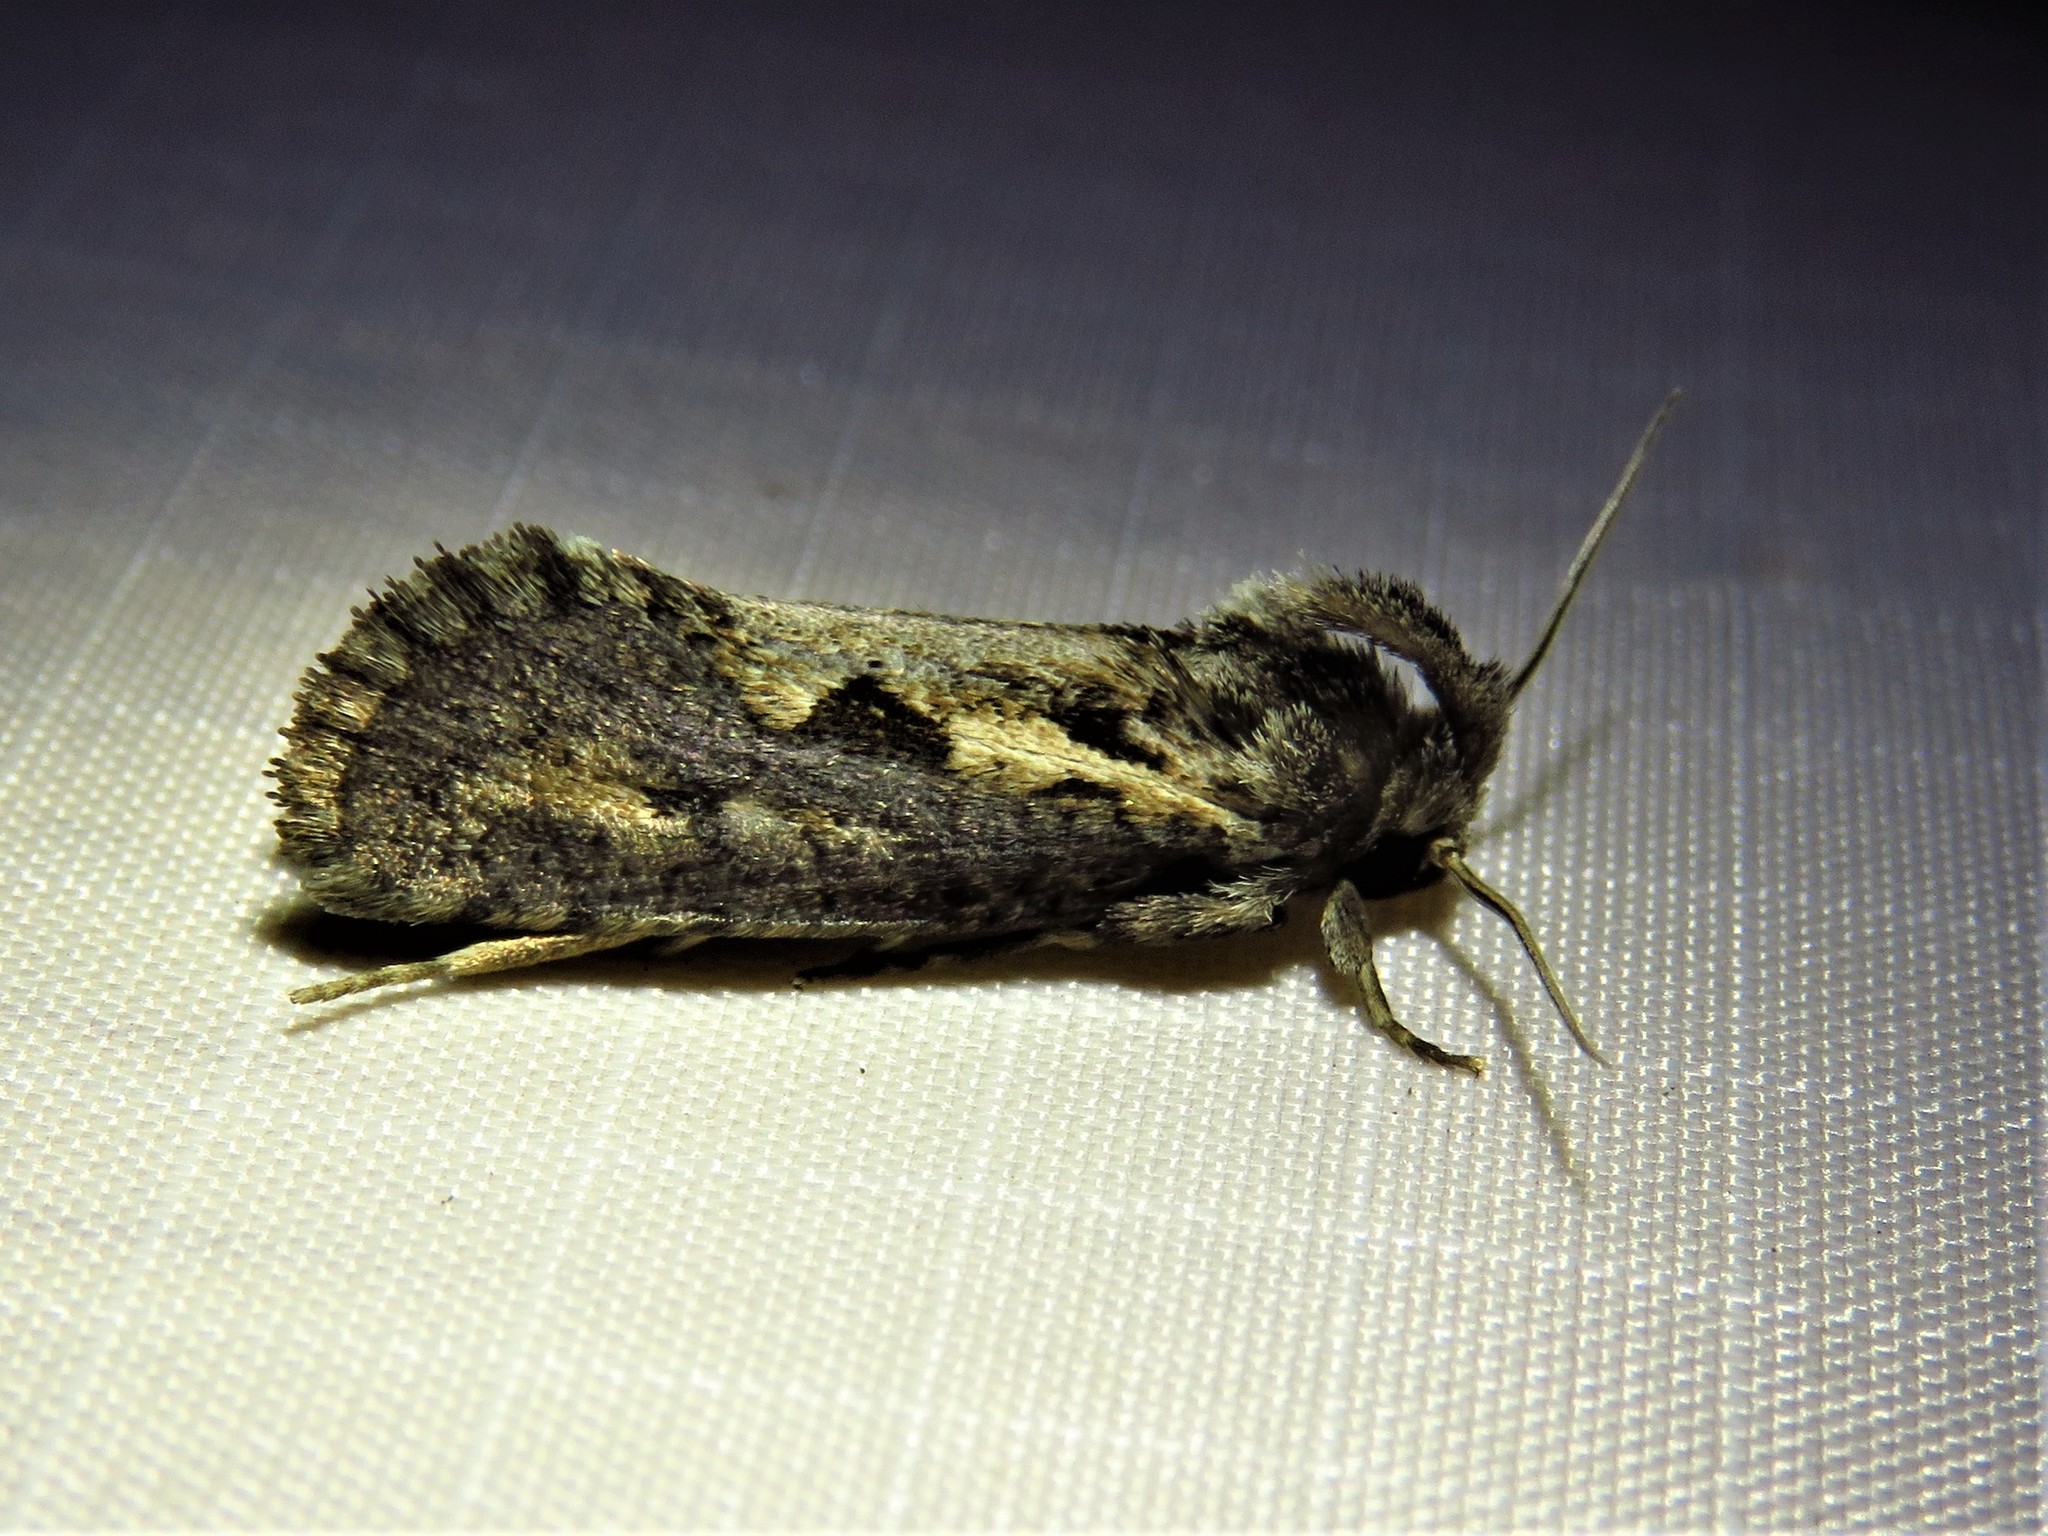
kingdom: Animalia
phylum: Arthropoda
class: Insecta
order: Lepidoptera
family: Tineidae
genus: Acrolophus
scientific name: Acrolophus popeanella
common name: Clemens' grass tubeworm moth
